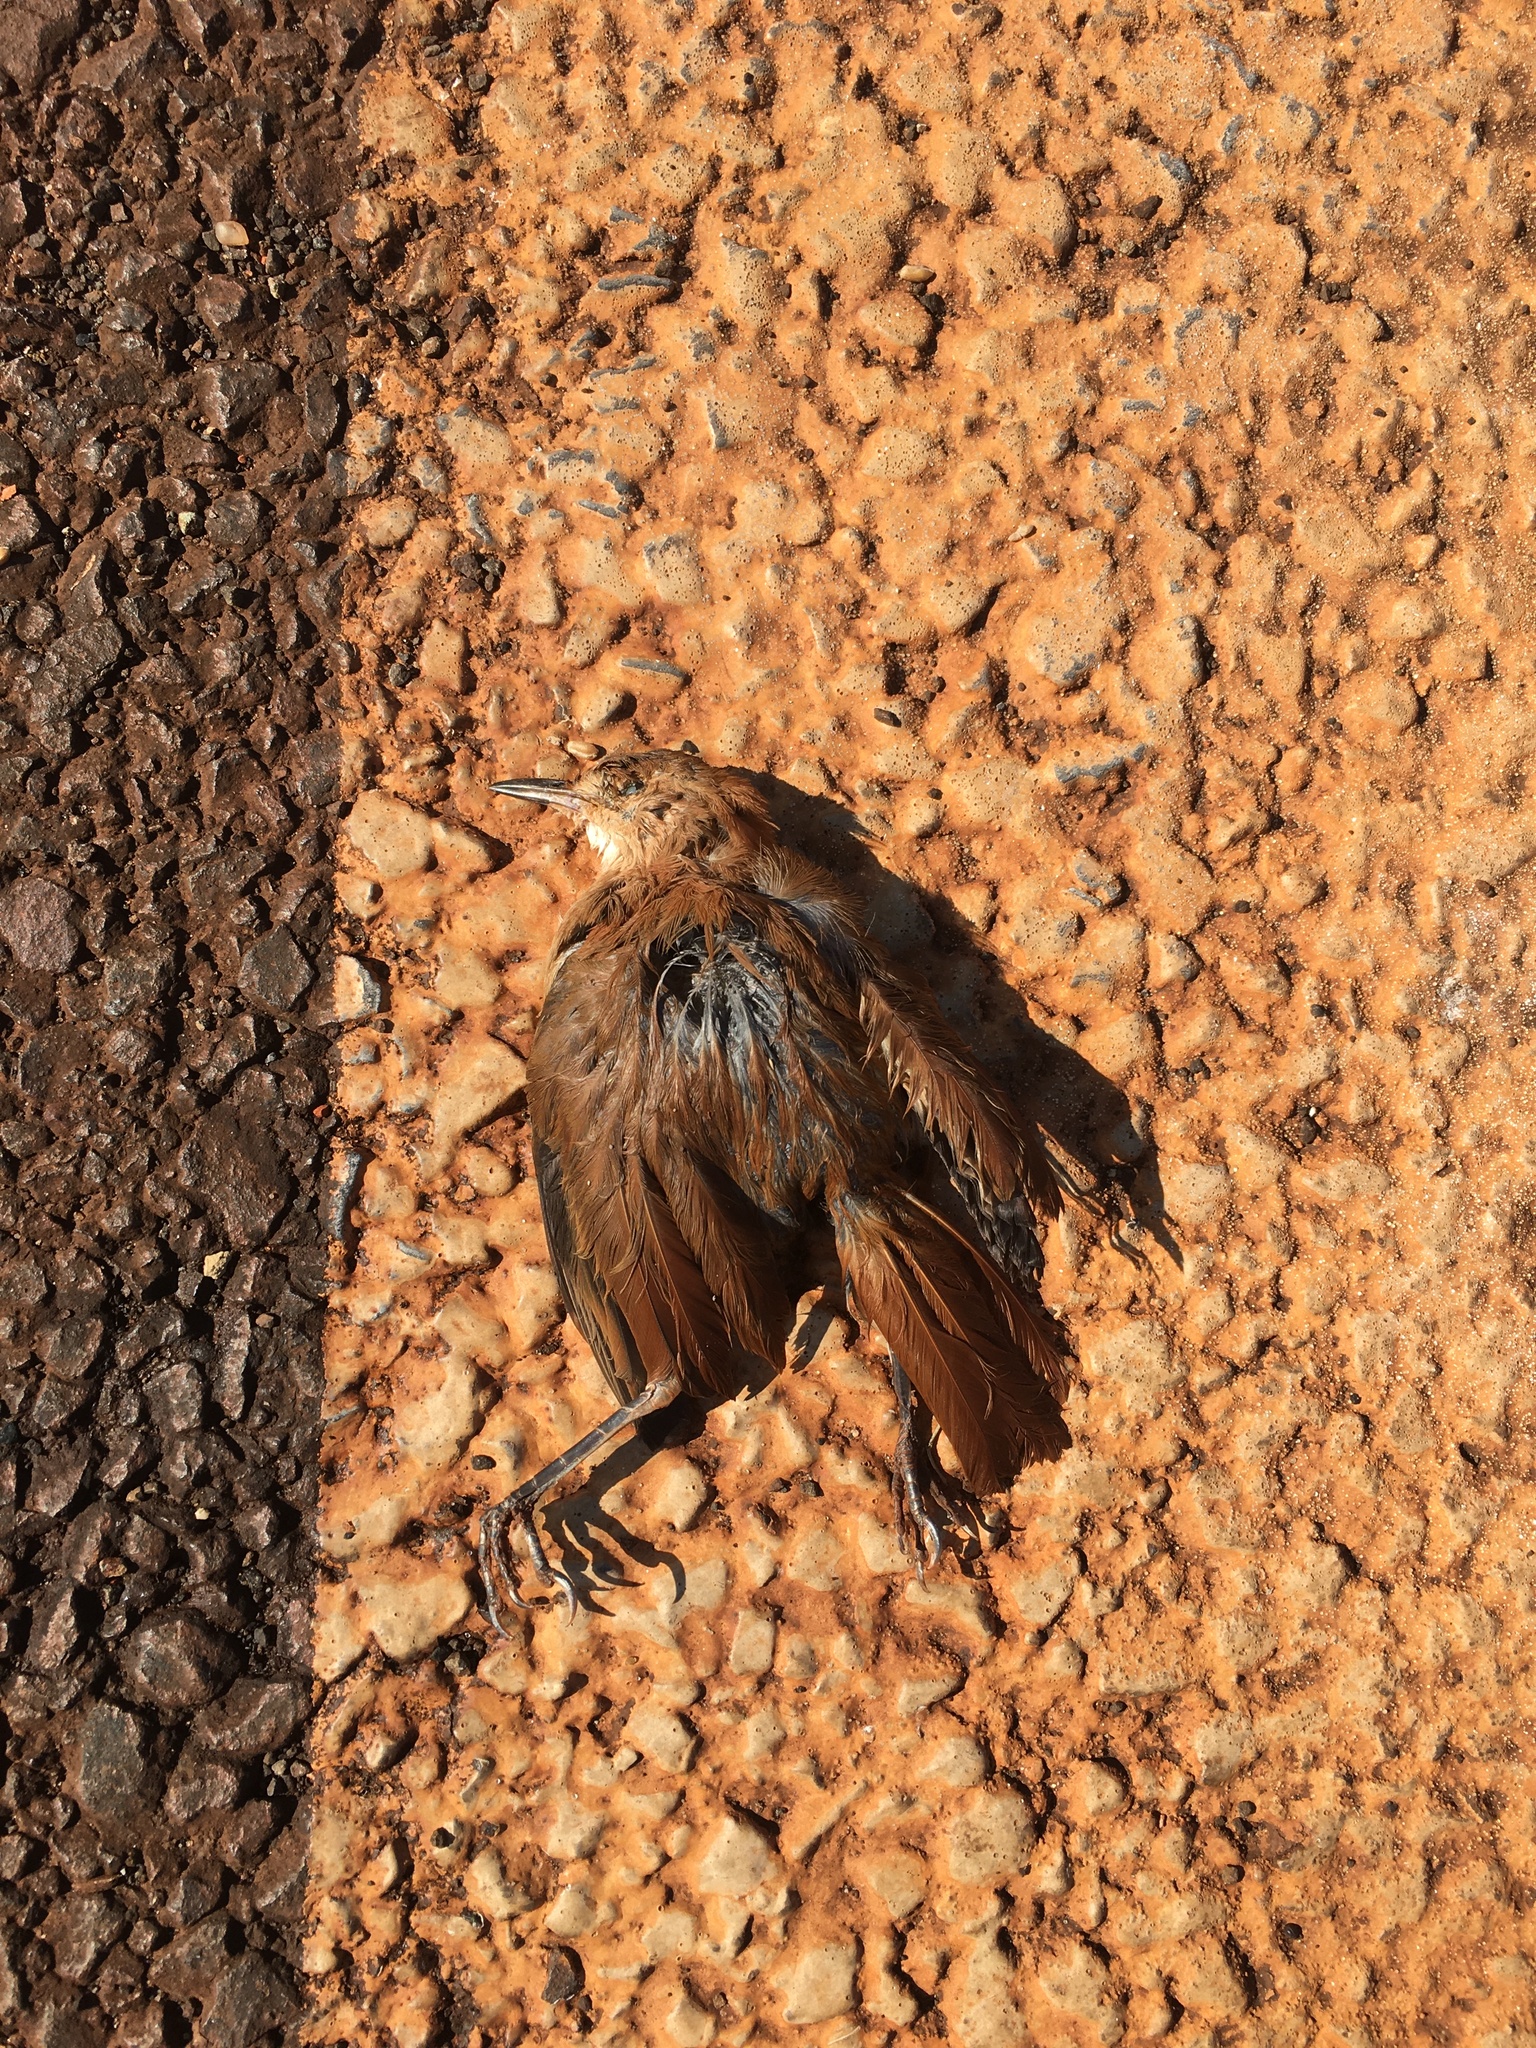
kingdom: Animalia
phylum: Chordata
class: Aves
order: Passeriformes
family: Furnariidae
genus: Furnarius
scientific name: Furnarius rufus
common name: Rufous hornero
